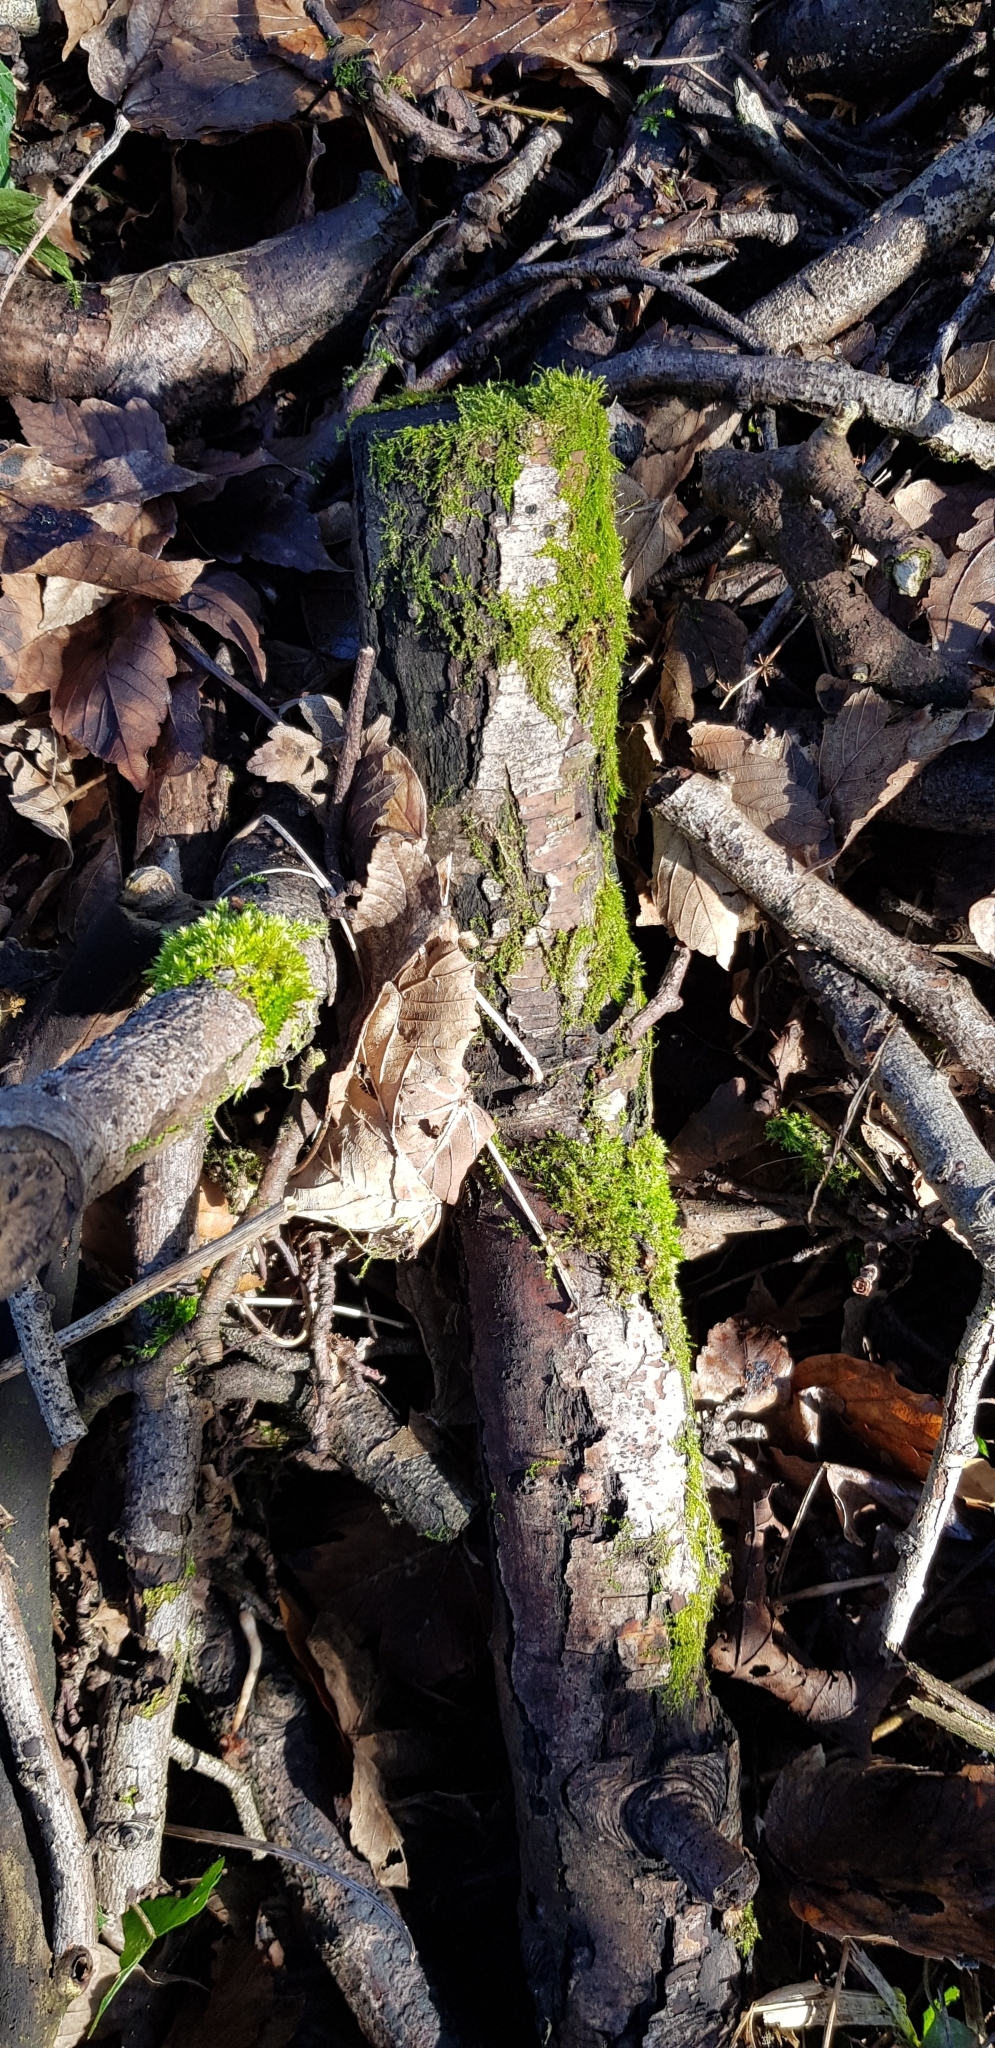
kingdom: Plantae
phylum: Bryophyta
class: Bryopsida
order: Hypnales
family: Amblystegiaceae
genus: Amblystegium
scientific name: Amblystegium serpens
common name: Jurkatzka's feather moss
